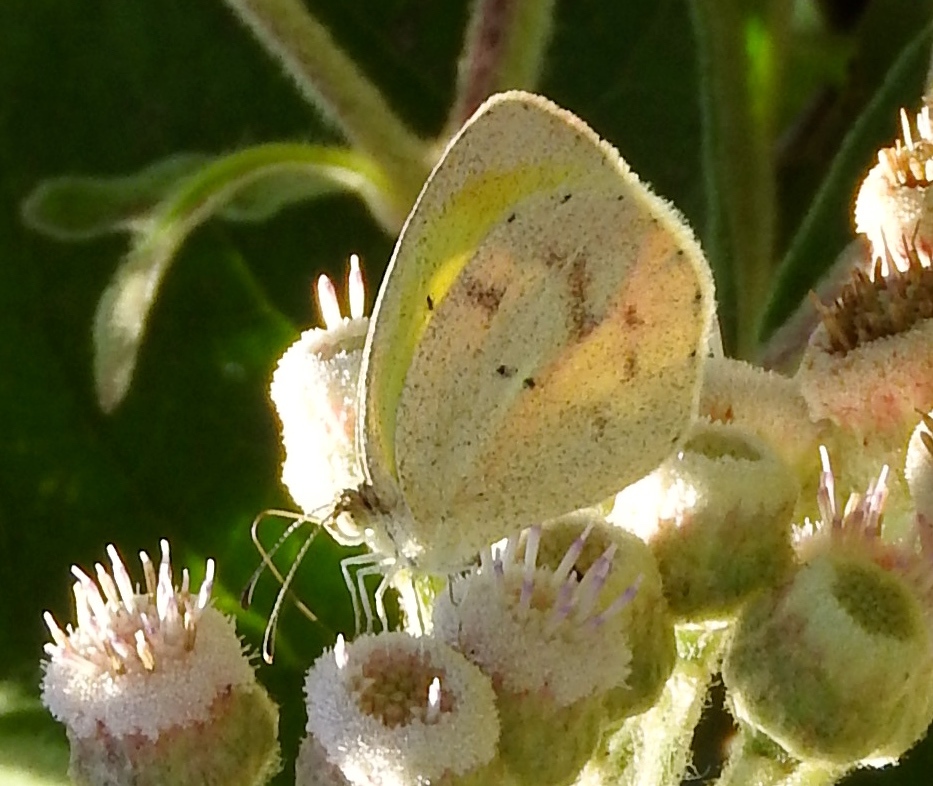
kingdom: Animalia
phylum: Arthropoda
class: Insecta
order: Lepidoptera
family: Pieridae
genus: Eurema
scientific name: Eurema daira
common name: Barred sulphur
